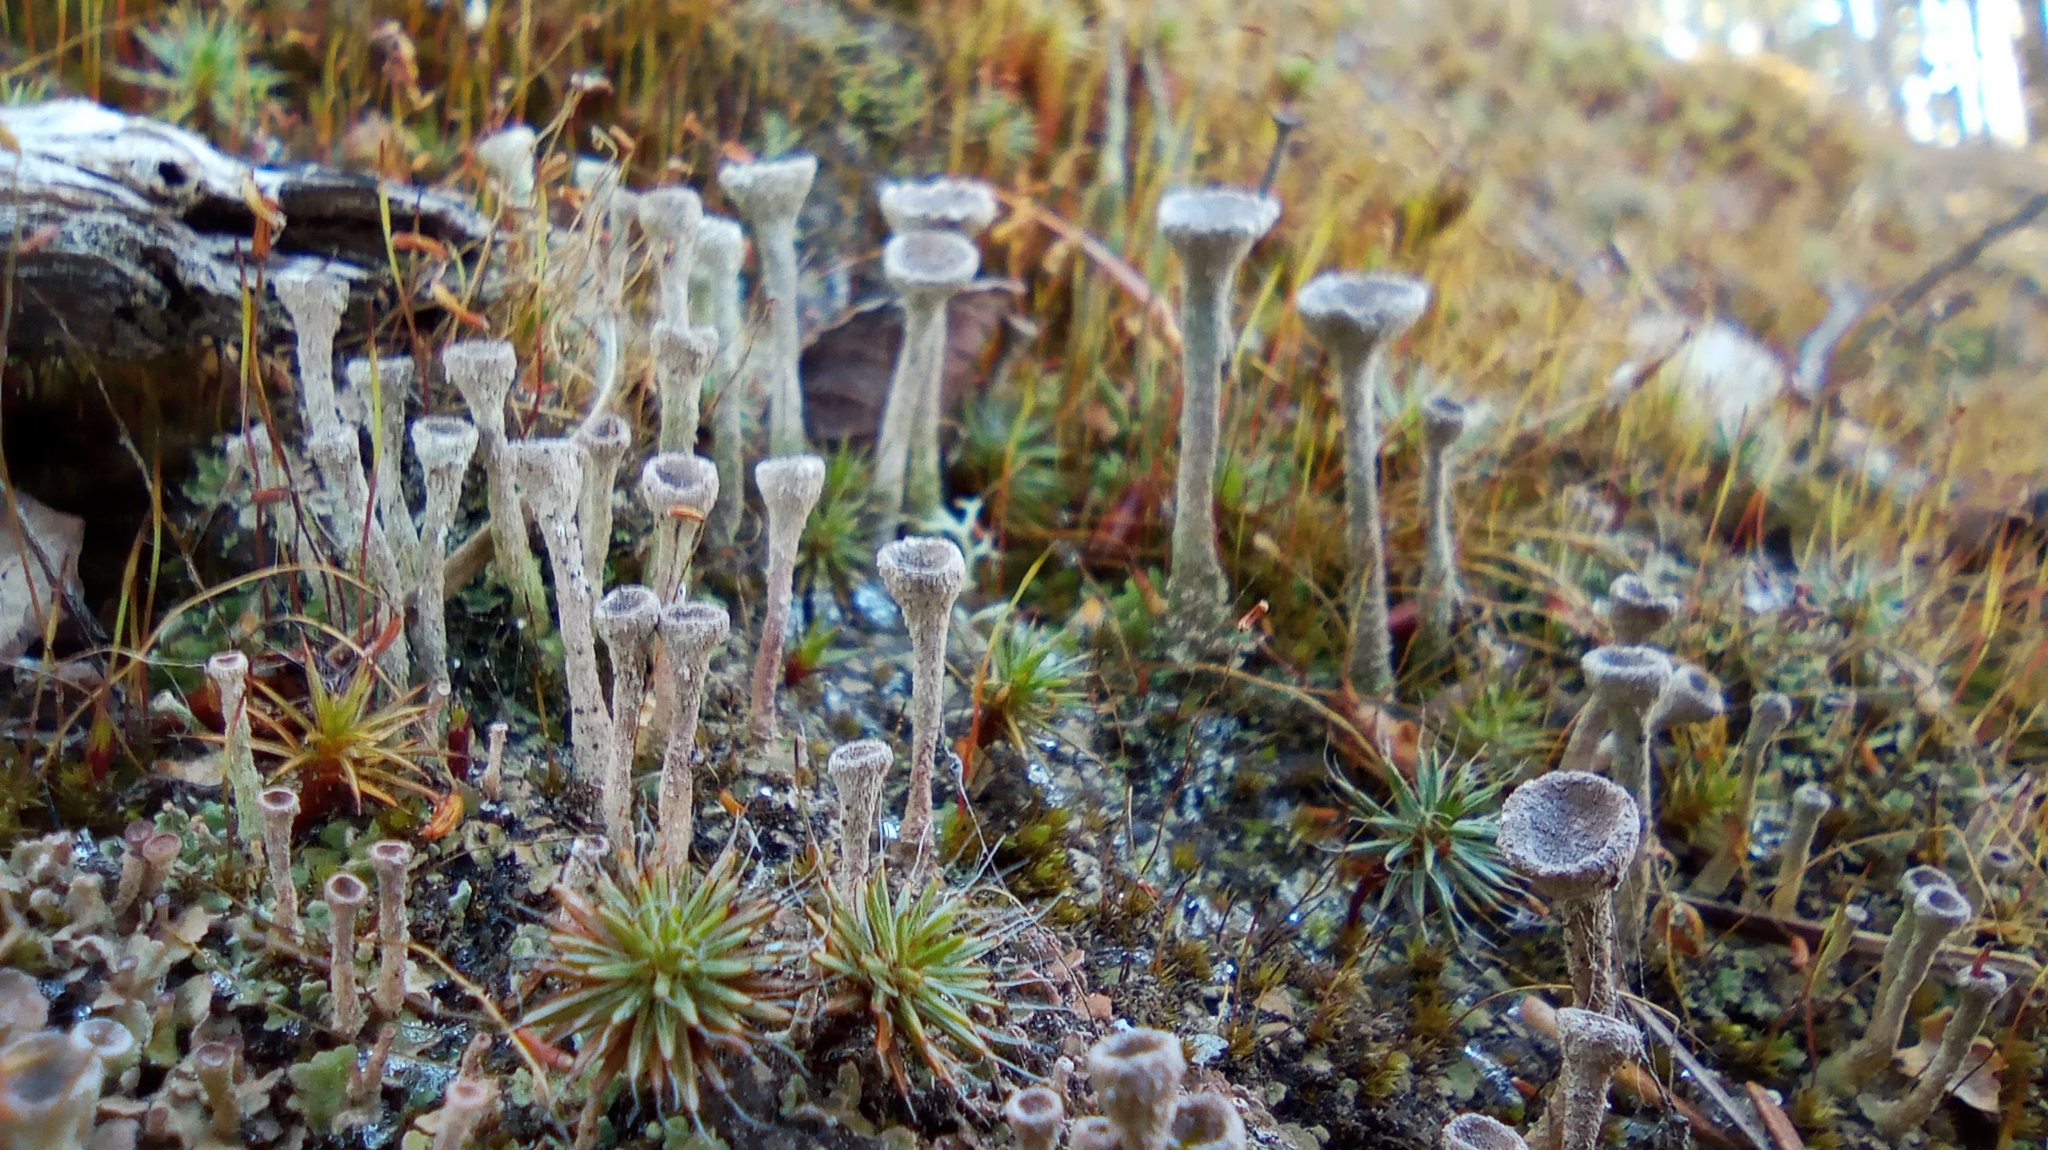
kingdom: Fungi
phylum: Ascomycota
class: Lecanoromycetes
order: Lecanorales
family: Cladoniaceae
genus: Cladonia
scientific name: Cladonia fimbriata
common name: Powdered trumpet lichen
